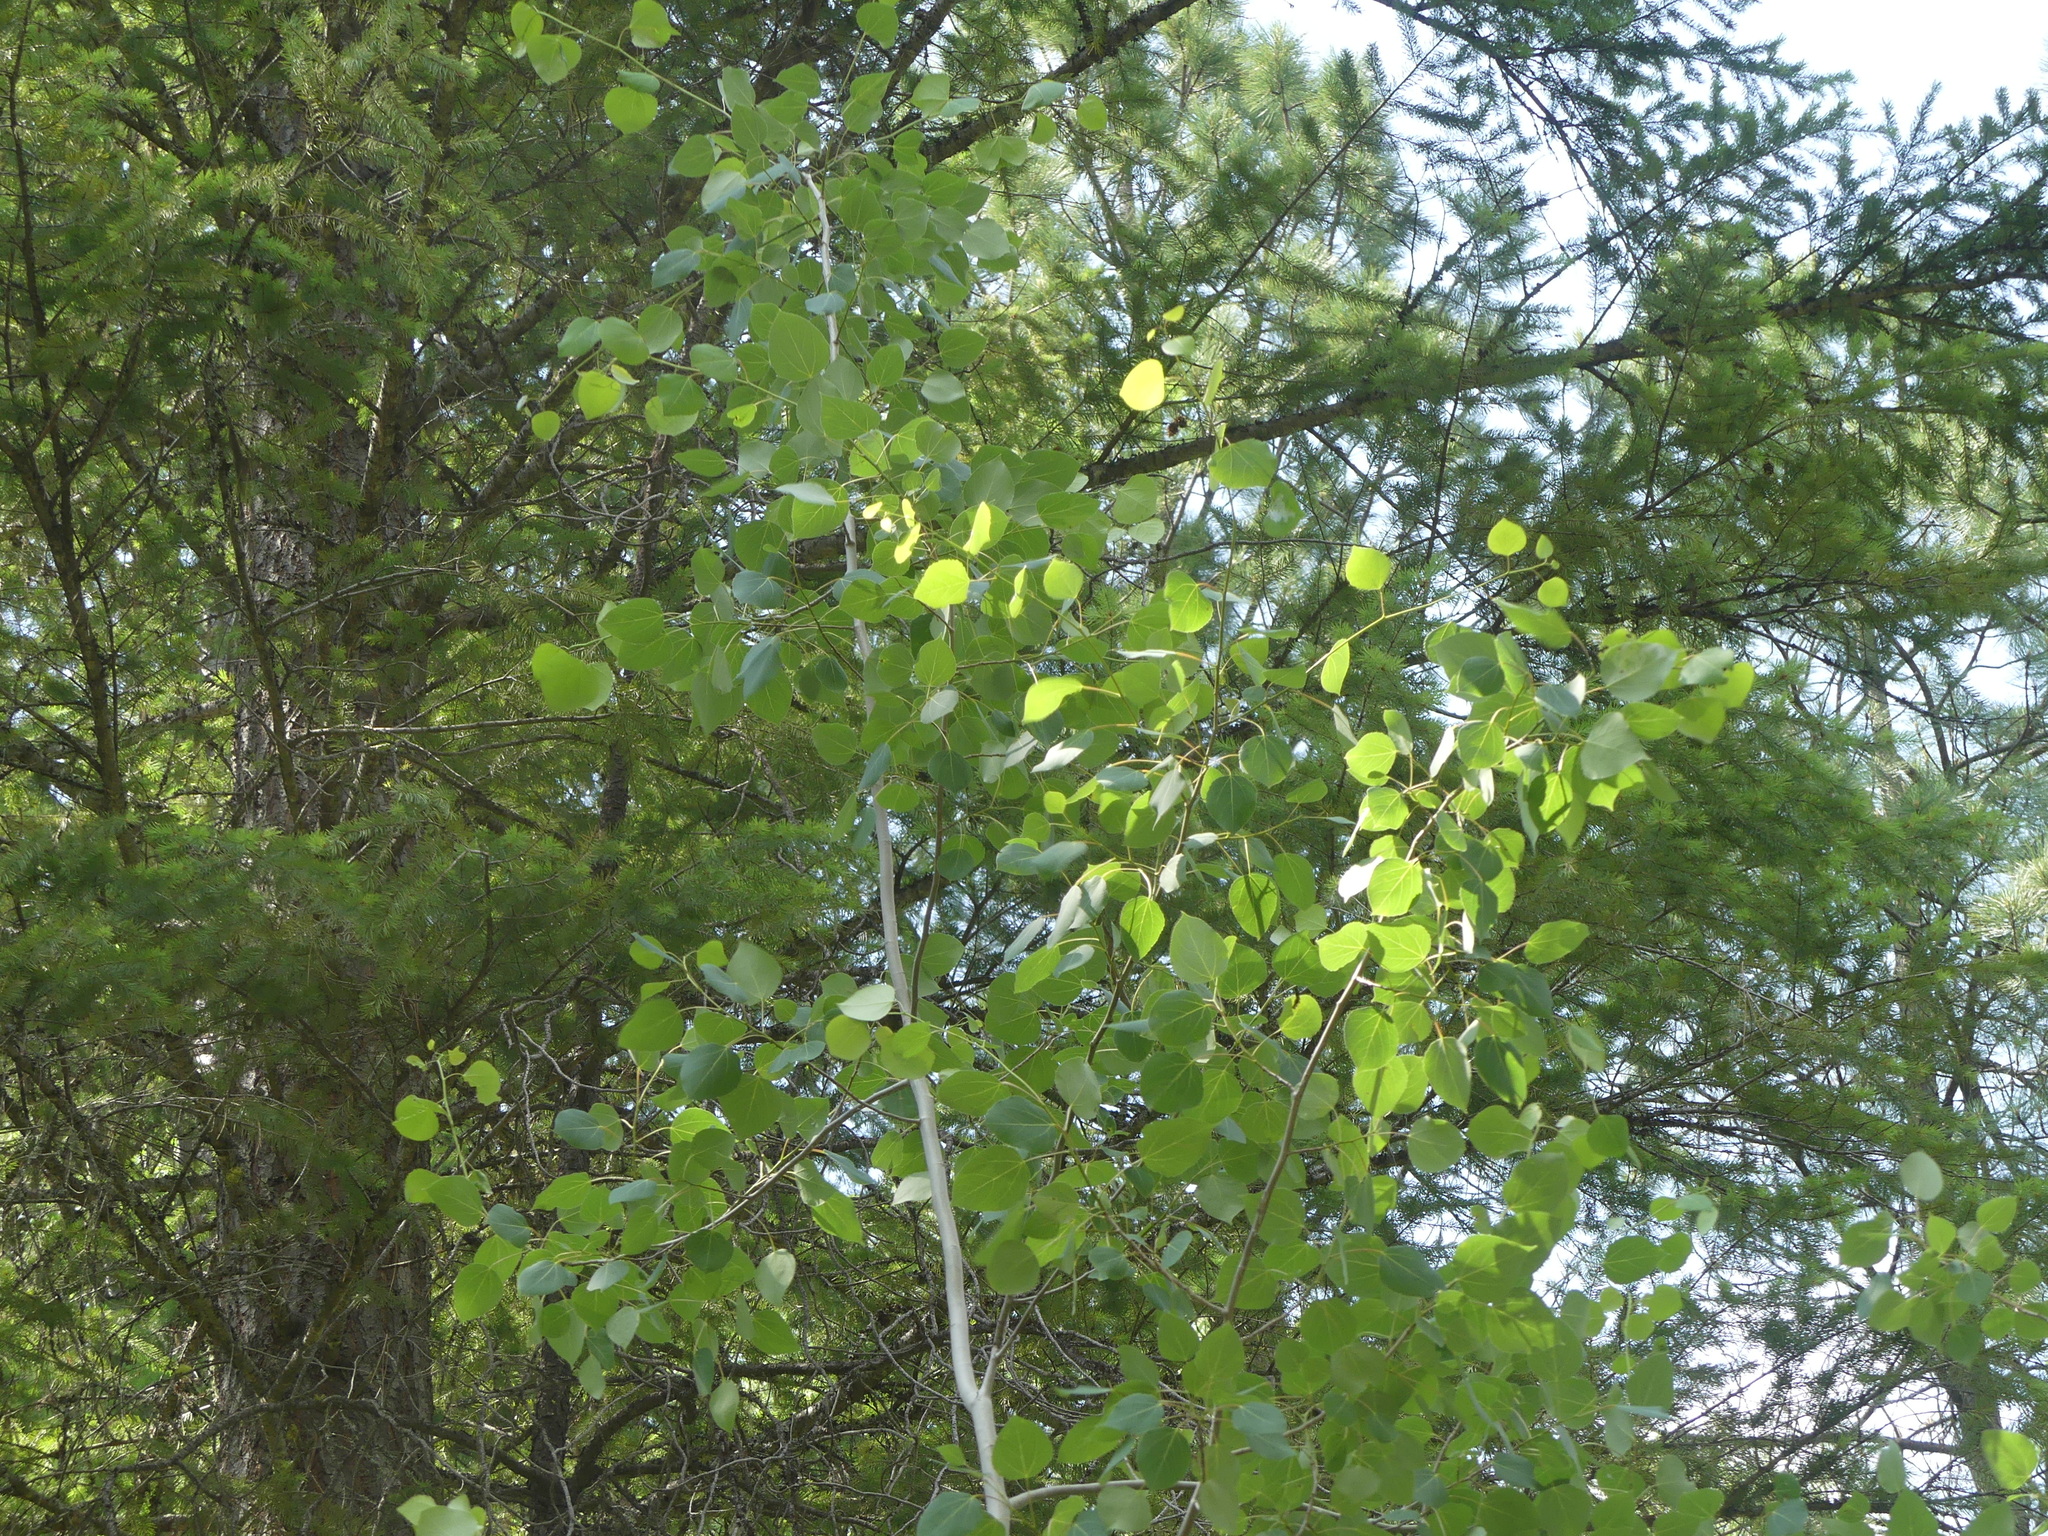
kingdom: Plantae
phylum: Tracheophyta
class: Magnoliopsida
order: Malpighiales
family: Salicaceae
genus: Populus
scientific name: Populus tremuloides
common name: Quaking aspen
